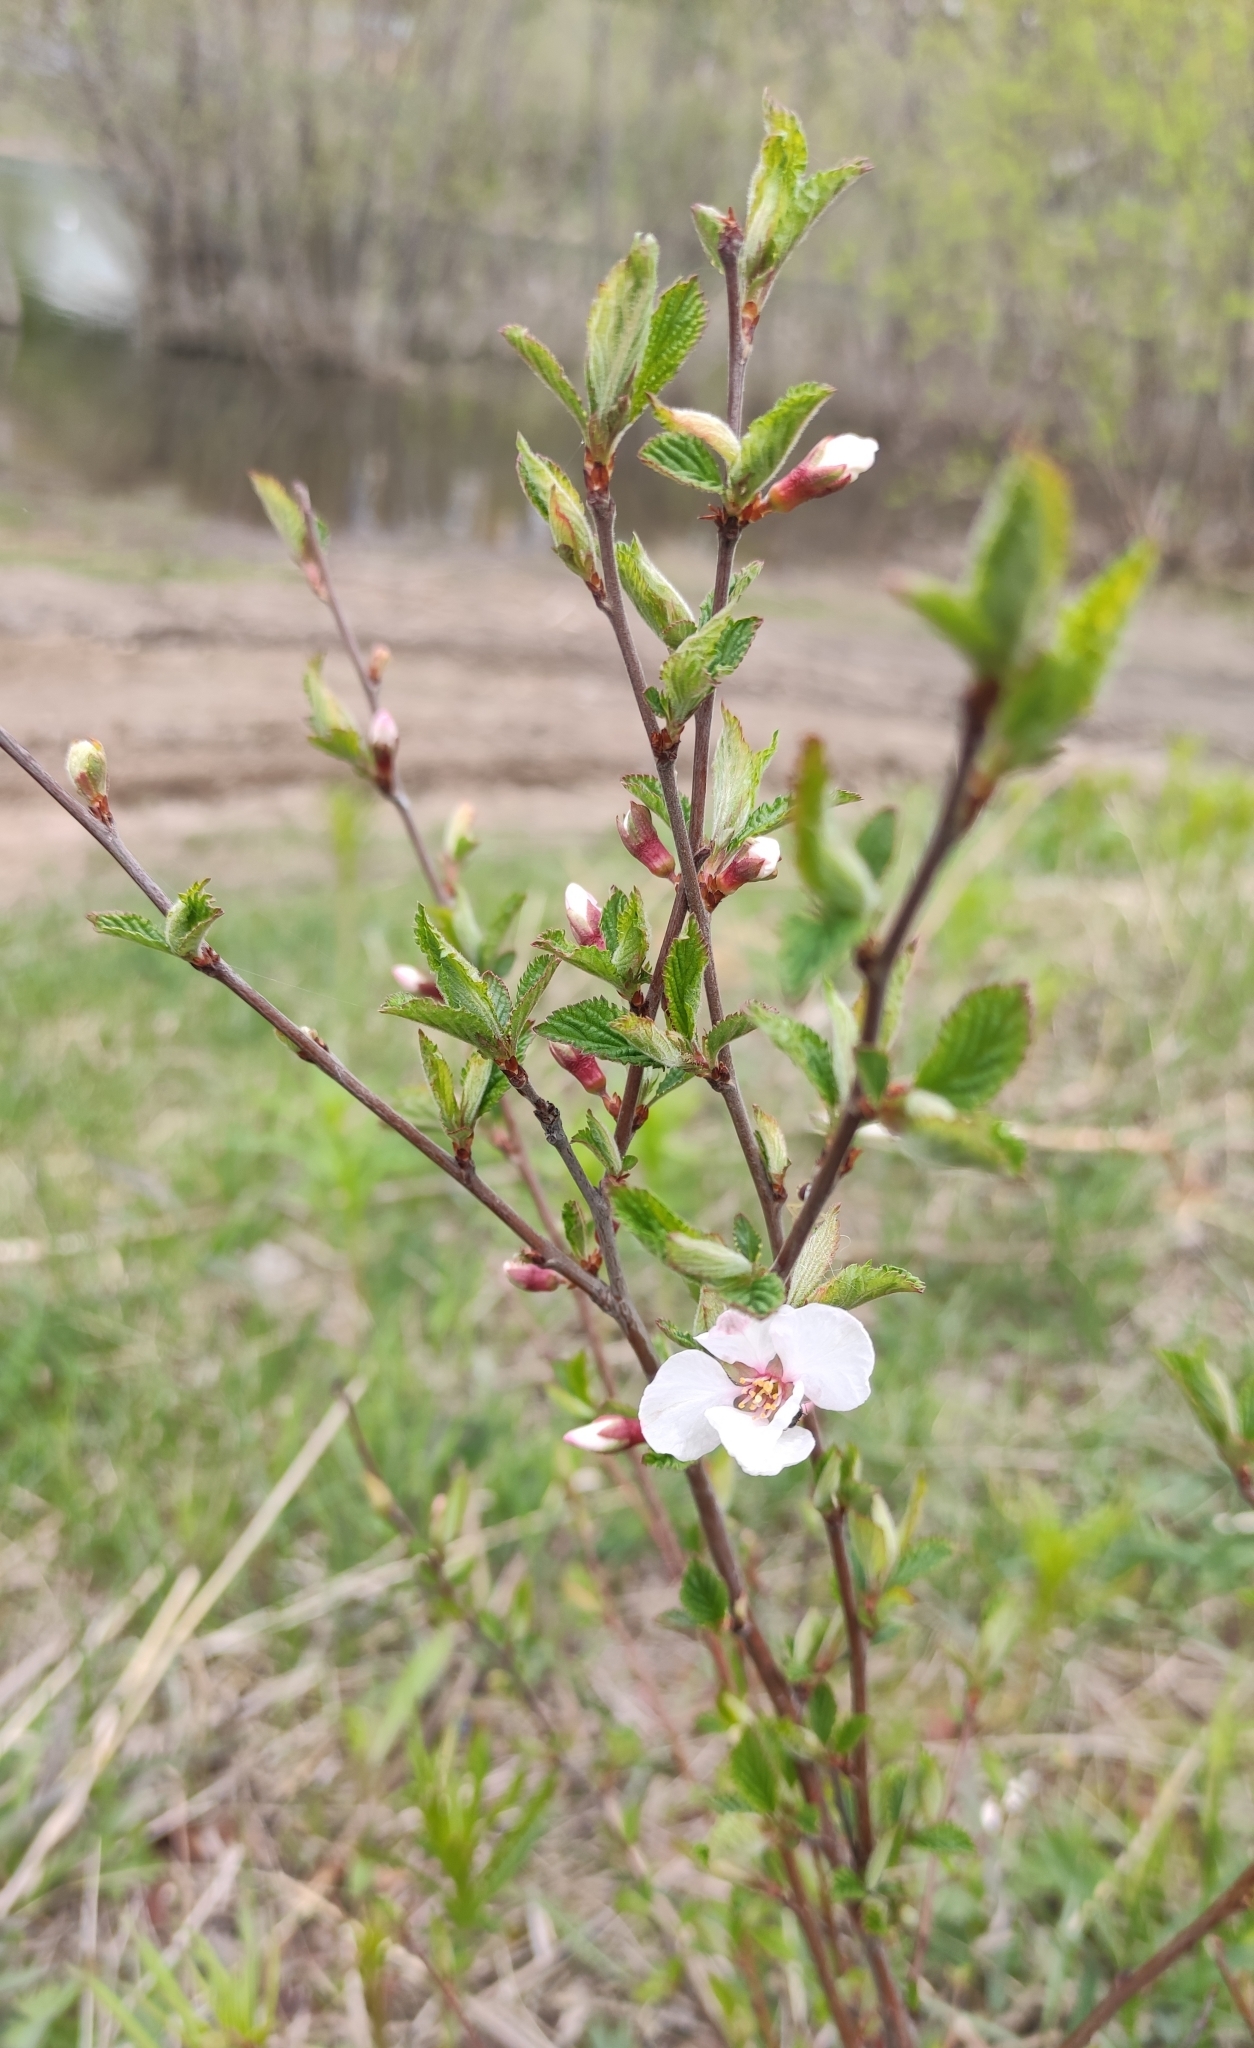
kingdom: Plantae
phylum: Tracheophyta
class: Magnoliopsida
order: Rosales
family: Rosaceae
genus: Prunus
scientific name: Prunus tomentosa
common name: Nanking cherry
